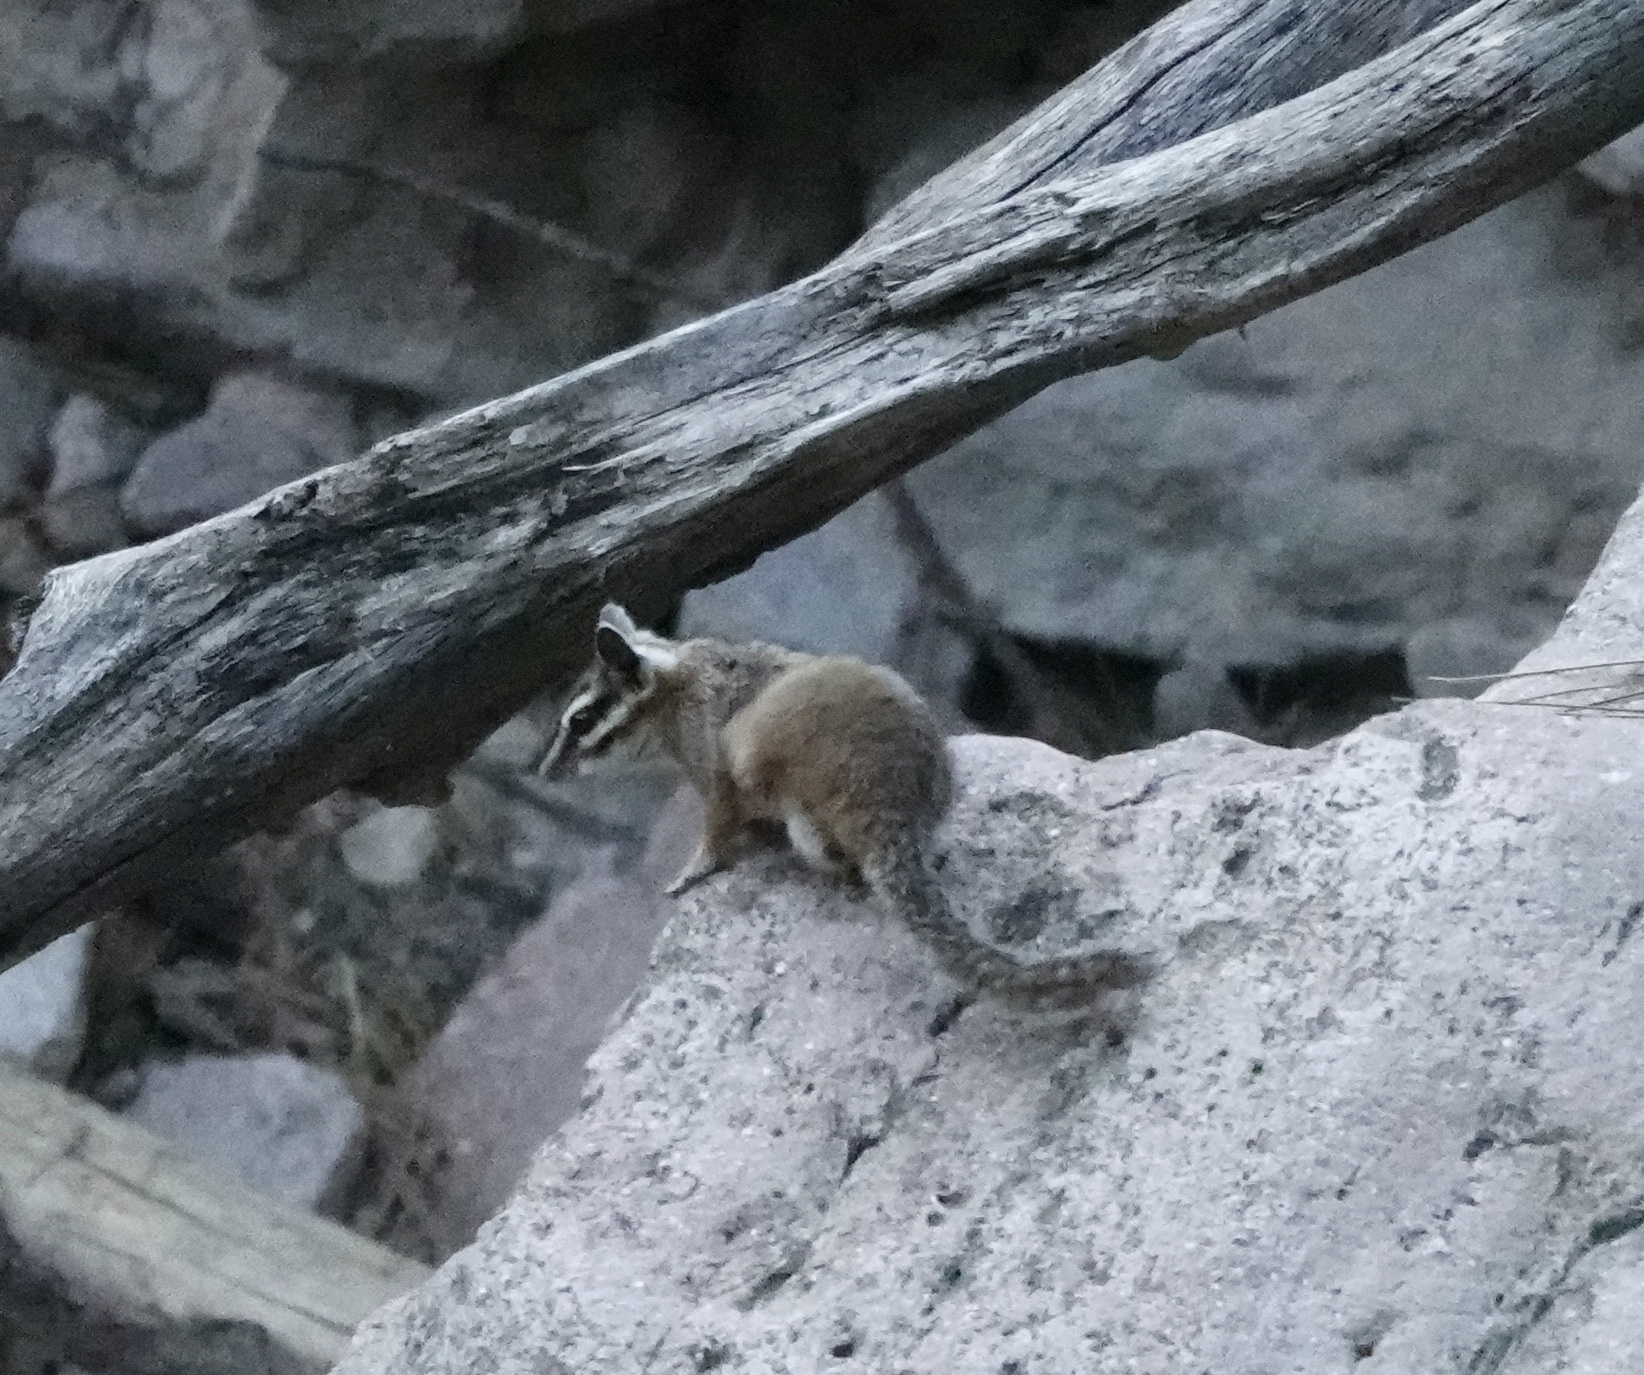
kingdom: Animalia
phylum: Chordata
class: Mammalia
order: Rodentia
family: Sciuridae
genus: Tamias
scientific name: Tamias dorsalis
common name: Cliff chipmunk
